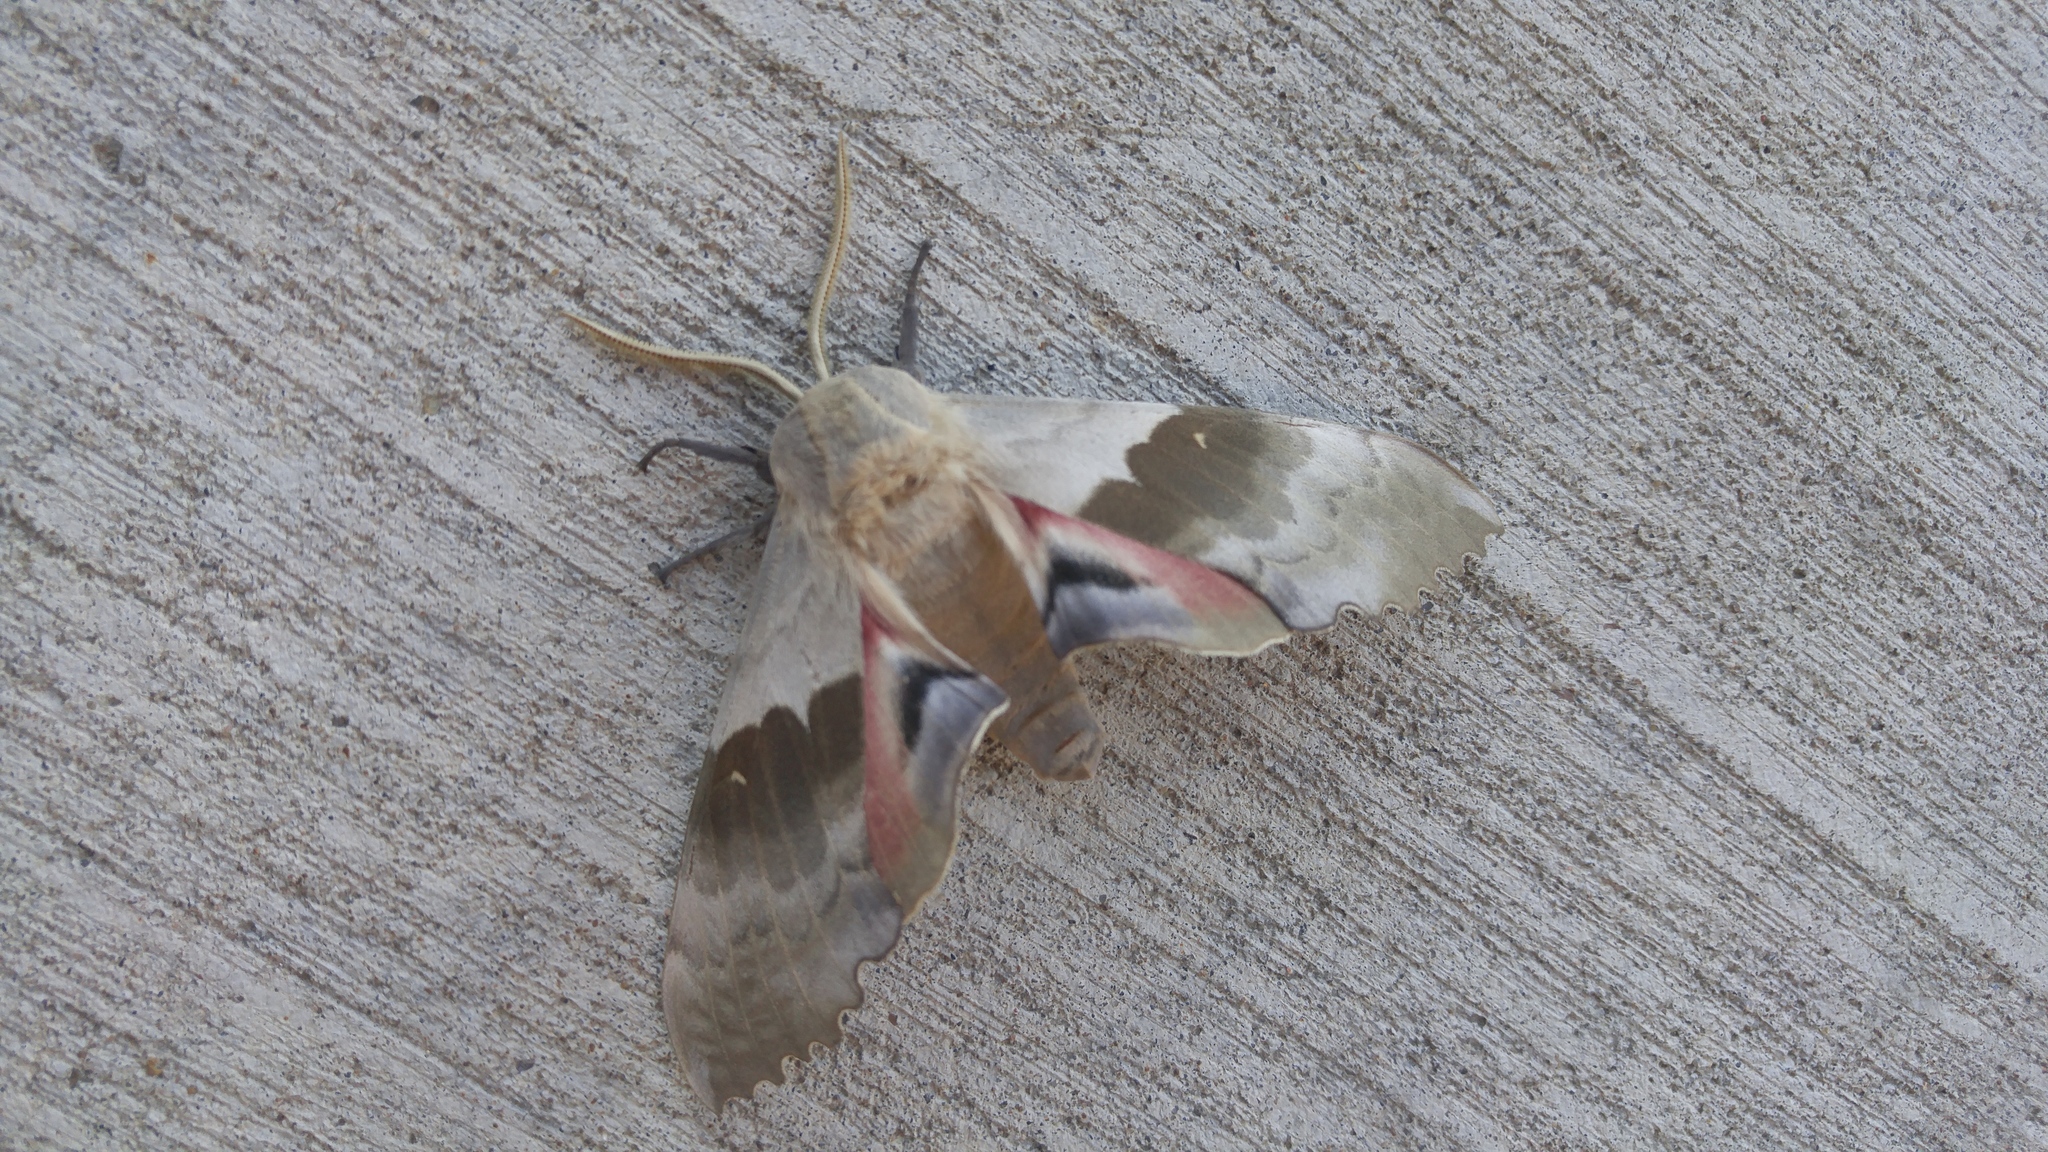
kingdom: Animalia
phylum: Arthropoda
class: Insecta
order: Lepidoptera
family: Sphingidae
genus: Pachysphinx
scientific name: Pachysphinx modesta
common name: Big poplar sphinx
